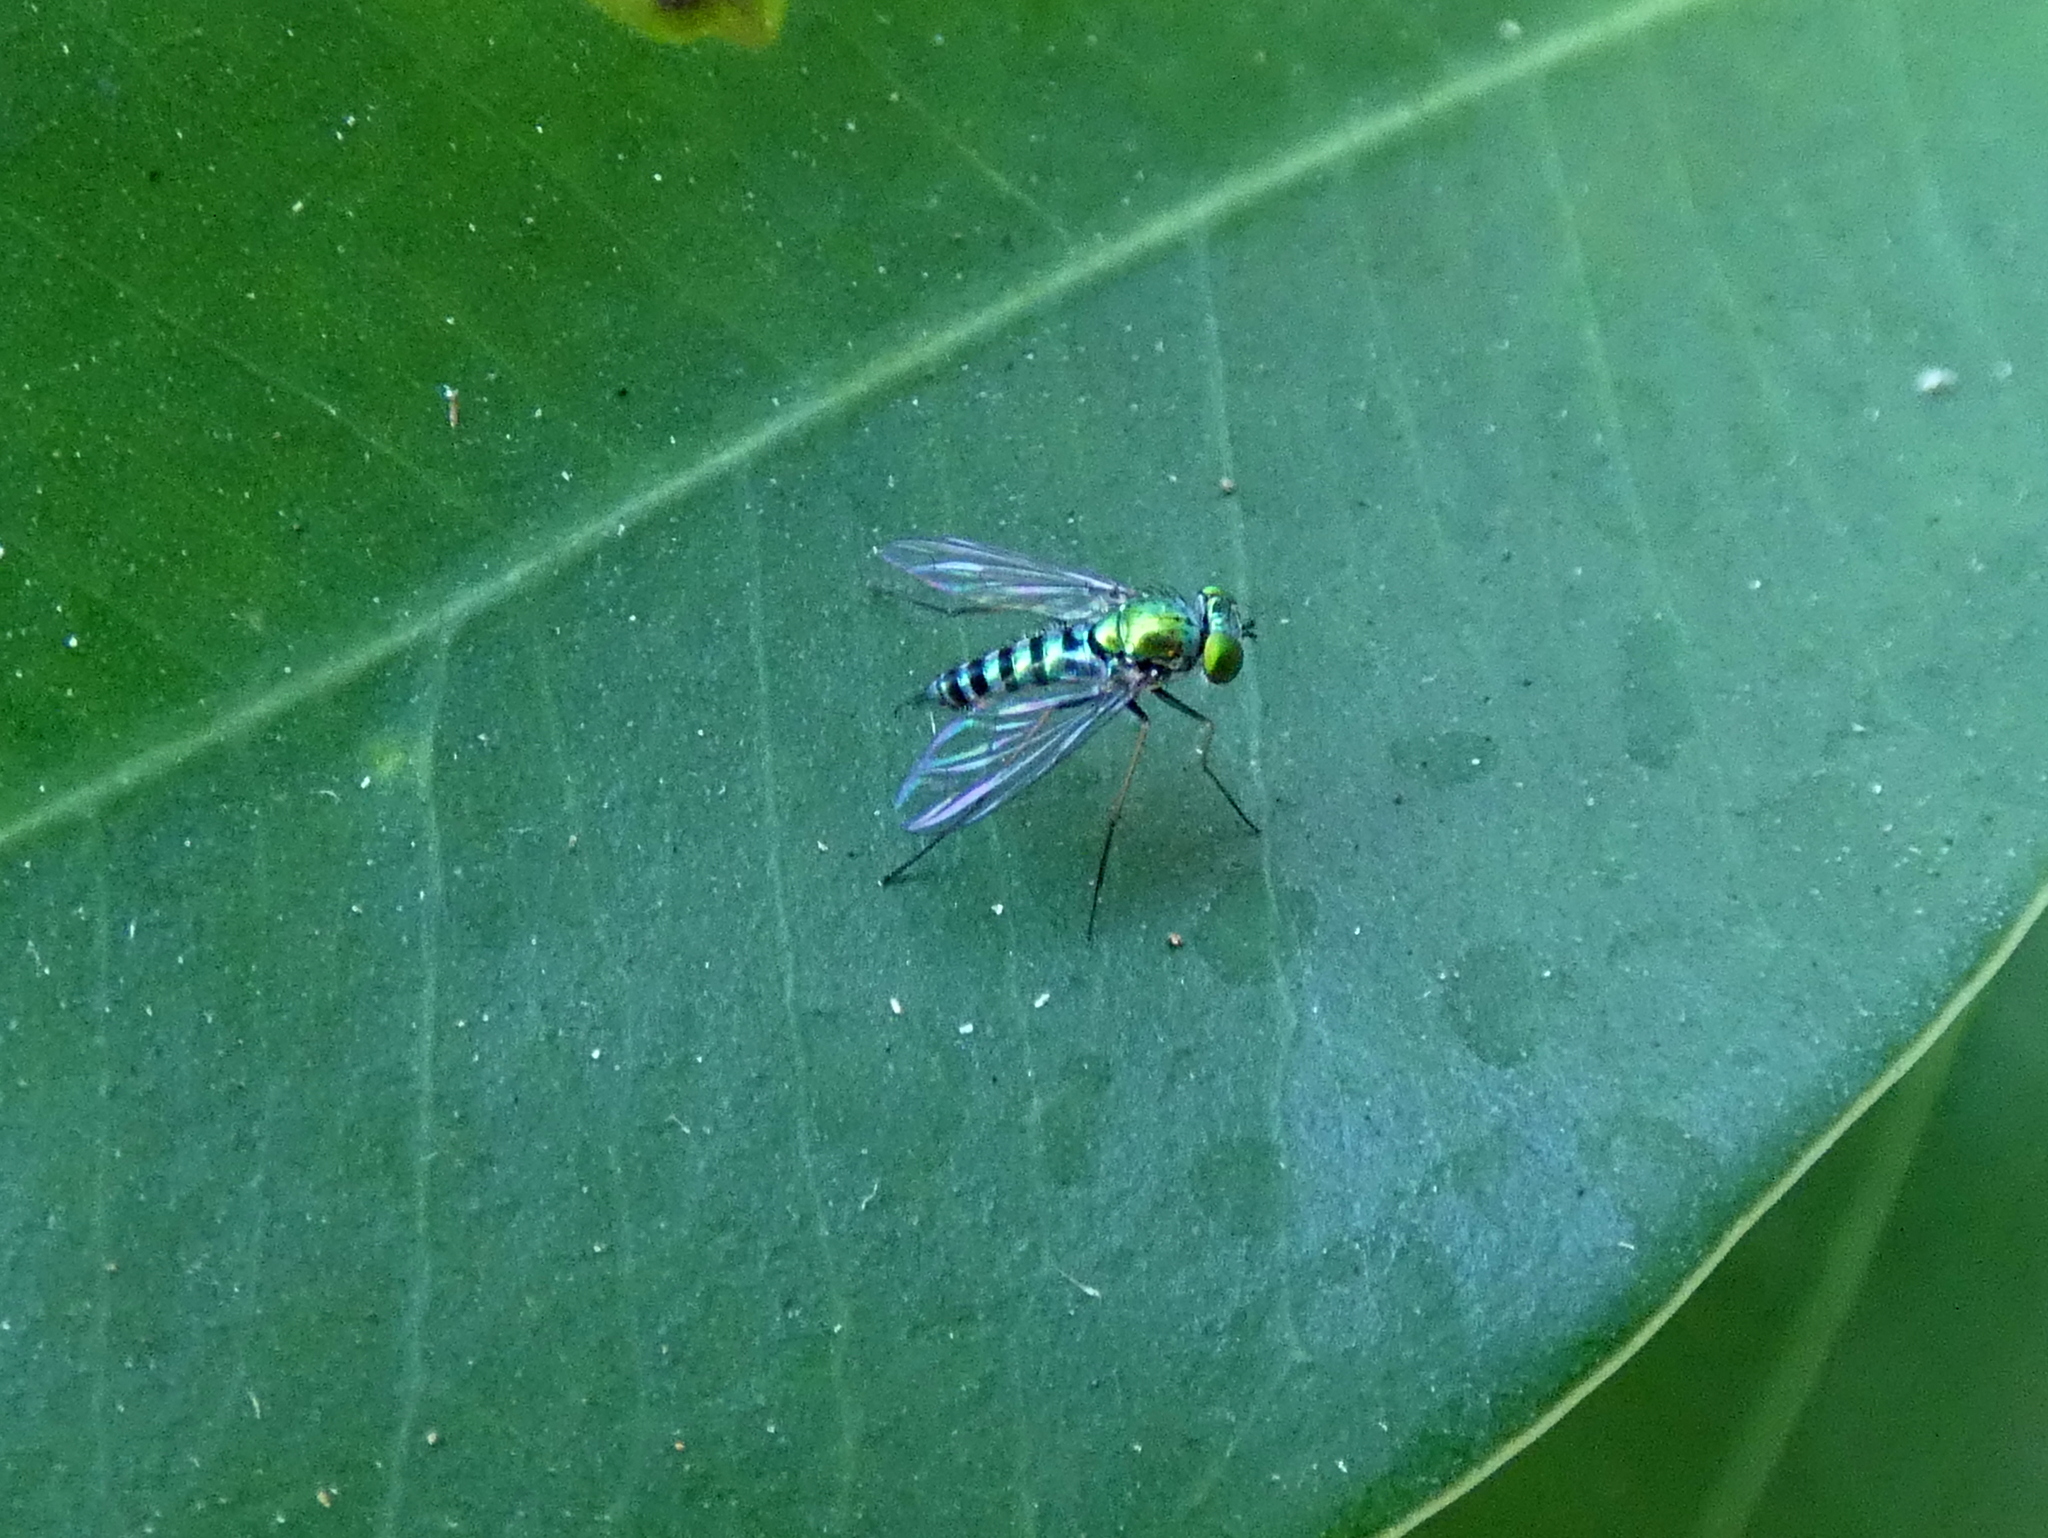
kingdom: Animalia
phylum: Arthropoda
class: Insecta
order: Diptera
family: Dolichopodidae
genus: Condylostylus
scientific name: Condylostylus graenicheri
